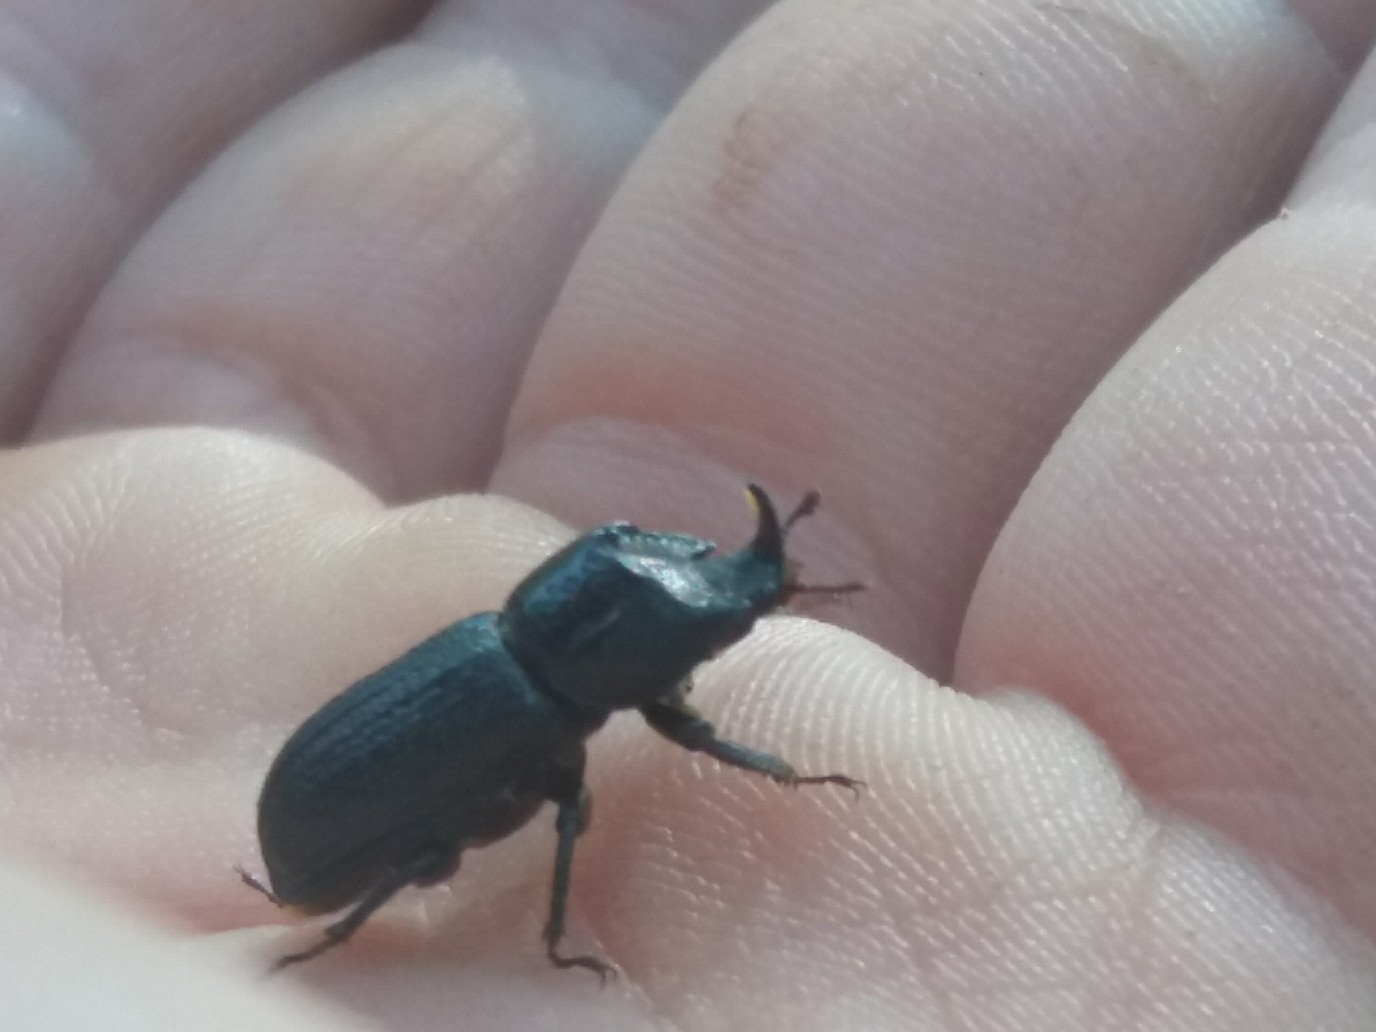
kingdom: Animalia
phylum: Arthropoda
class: Insecta
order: Coleoptera
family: Lucanidae
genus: Sinodendron
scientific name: Sinodendron cylindricum
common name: Rhinoceros beetle
